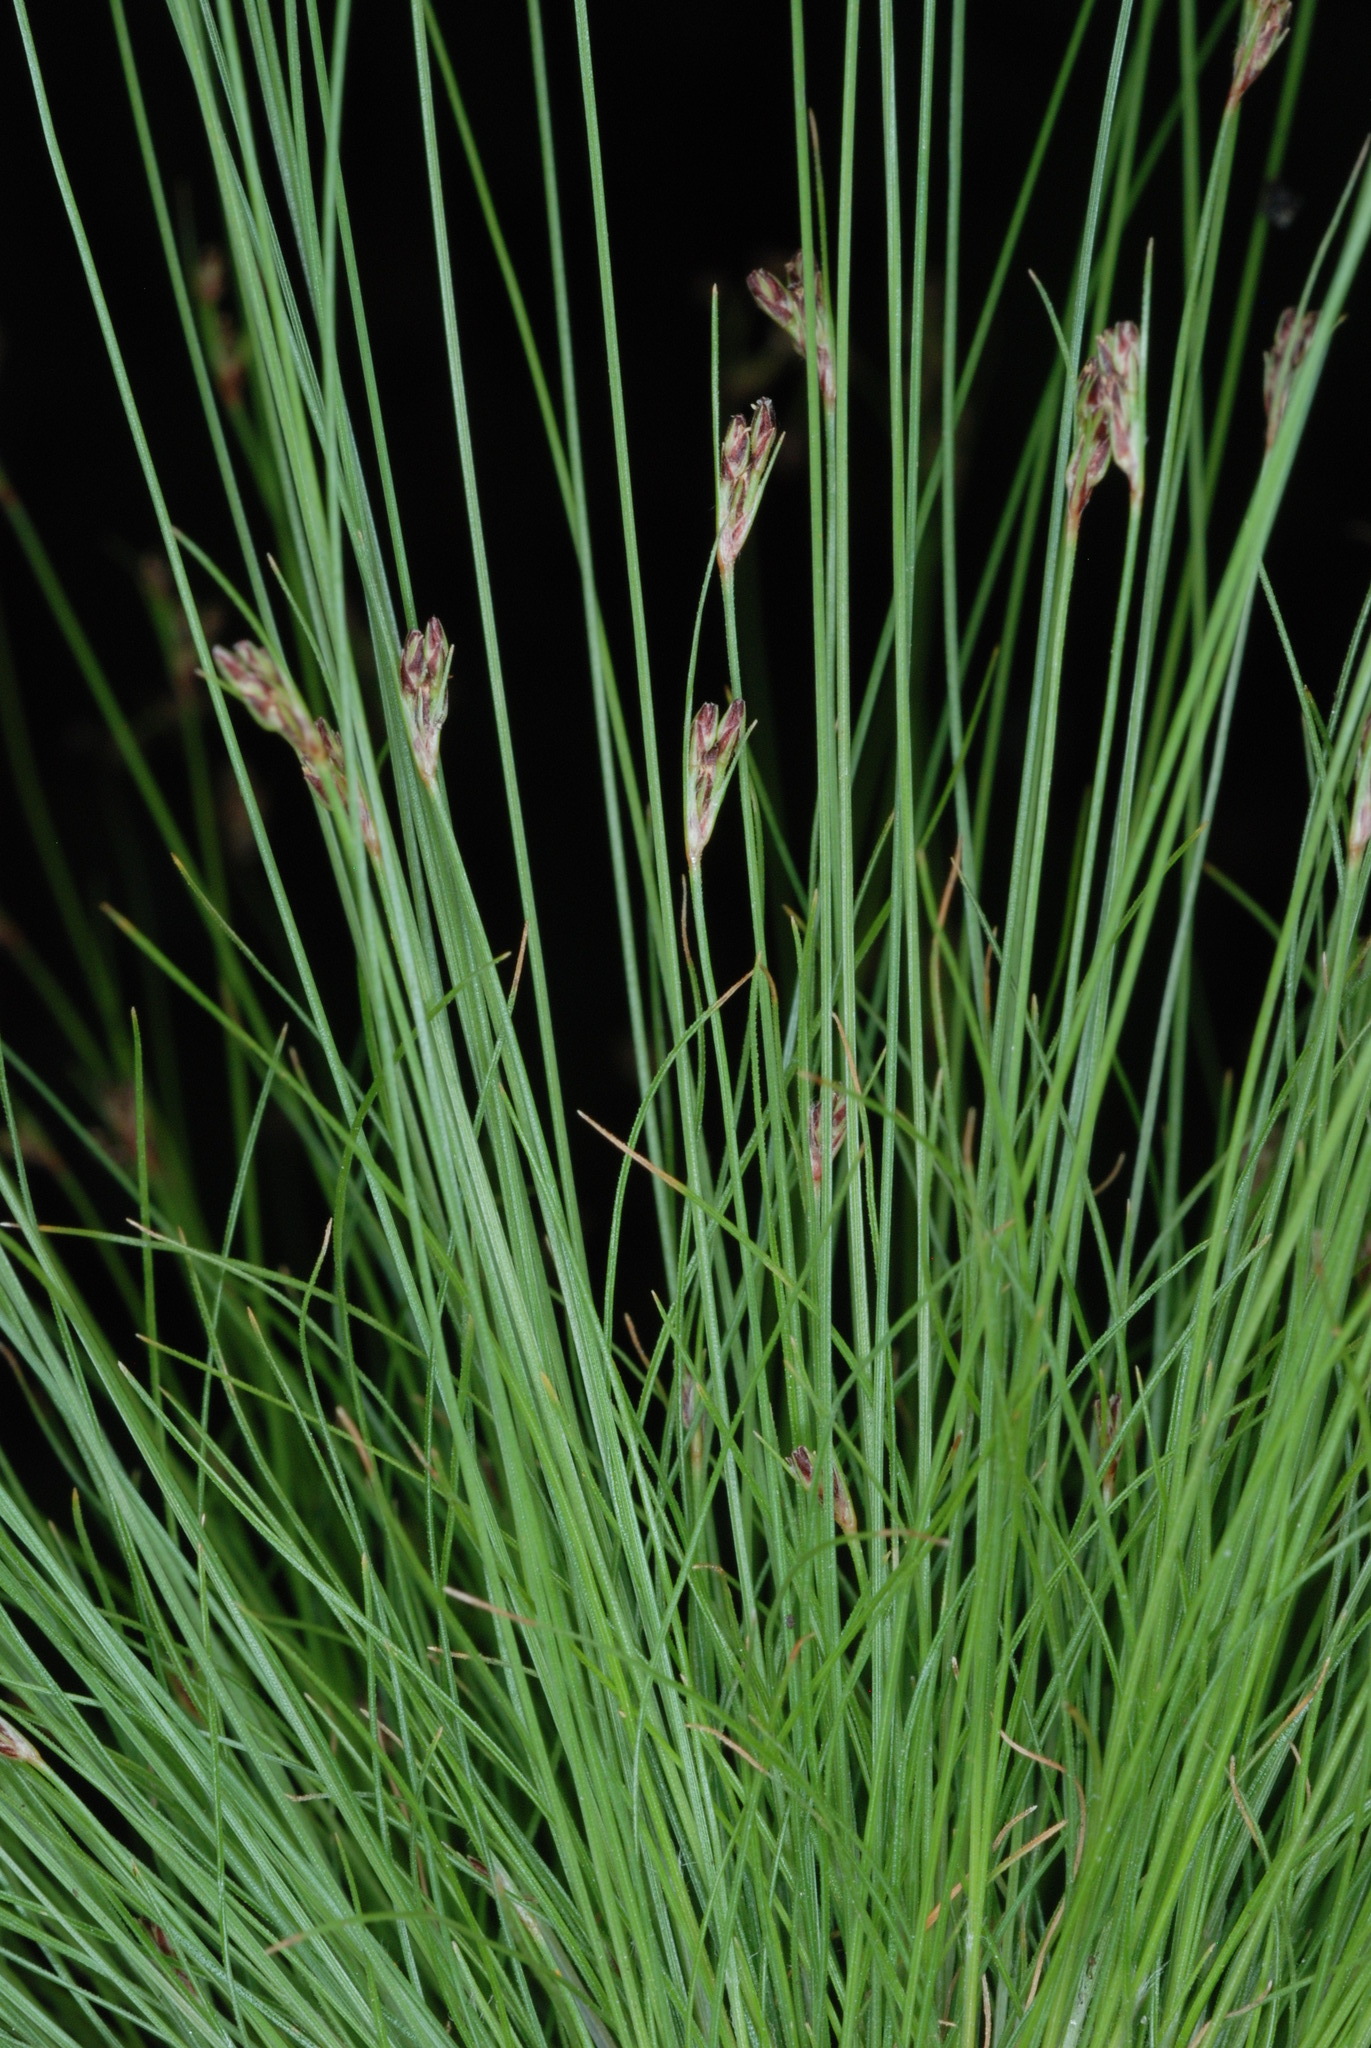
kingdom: Plantae
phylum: Tracheophyta
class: Liliopsida
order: Poales
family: Cyperaceae
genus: Bulbostylis
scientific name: Bulbostylis capillaris
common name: Densetuft hairsedge
